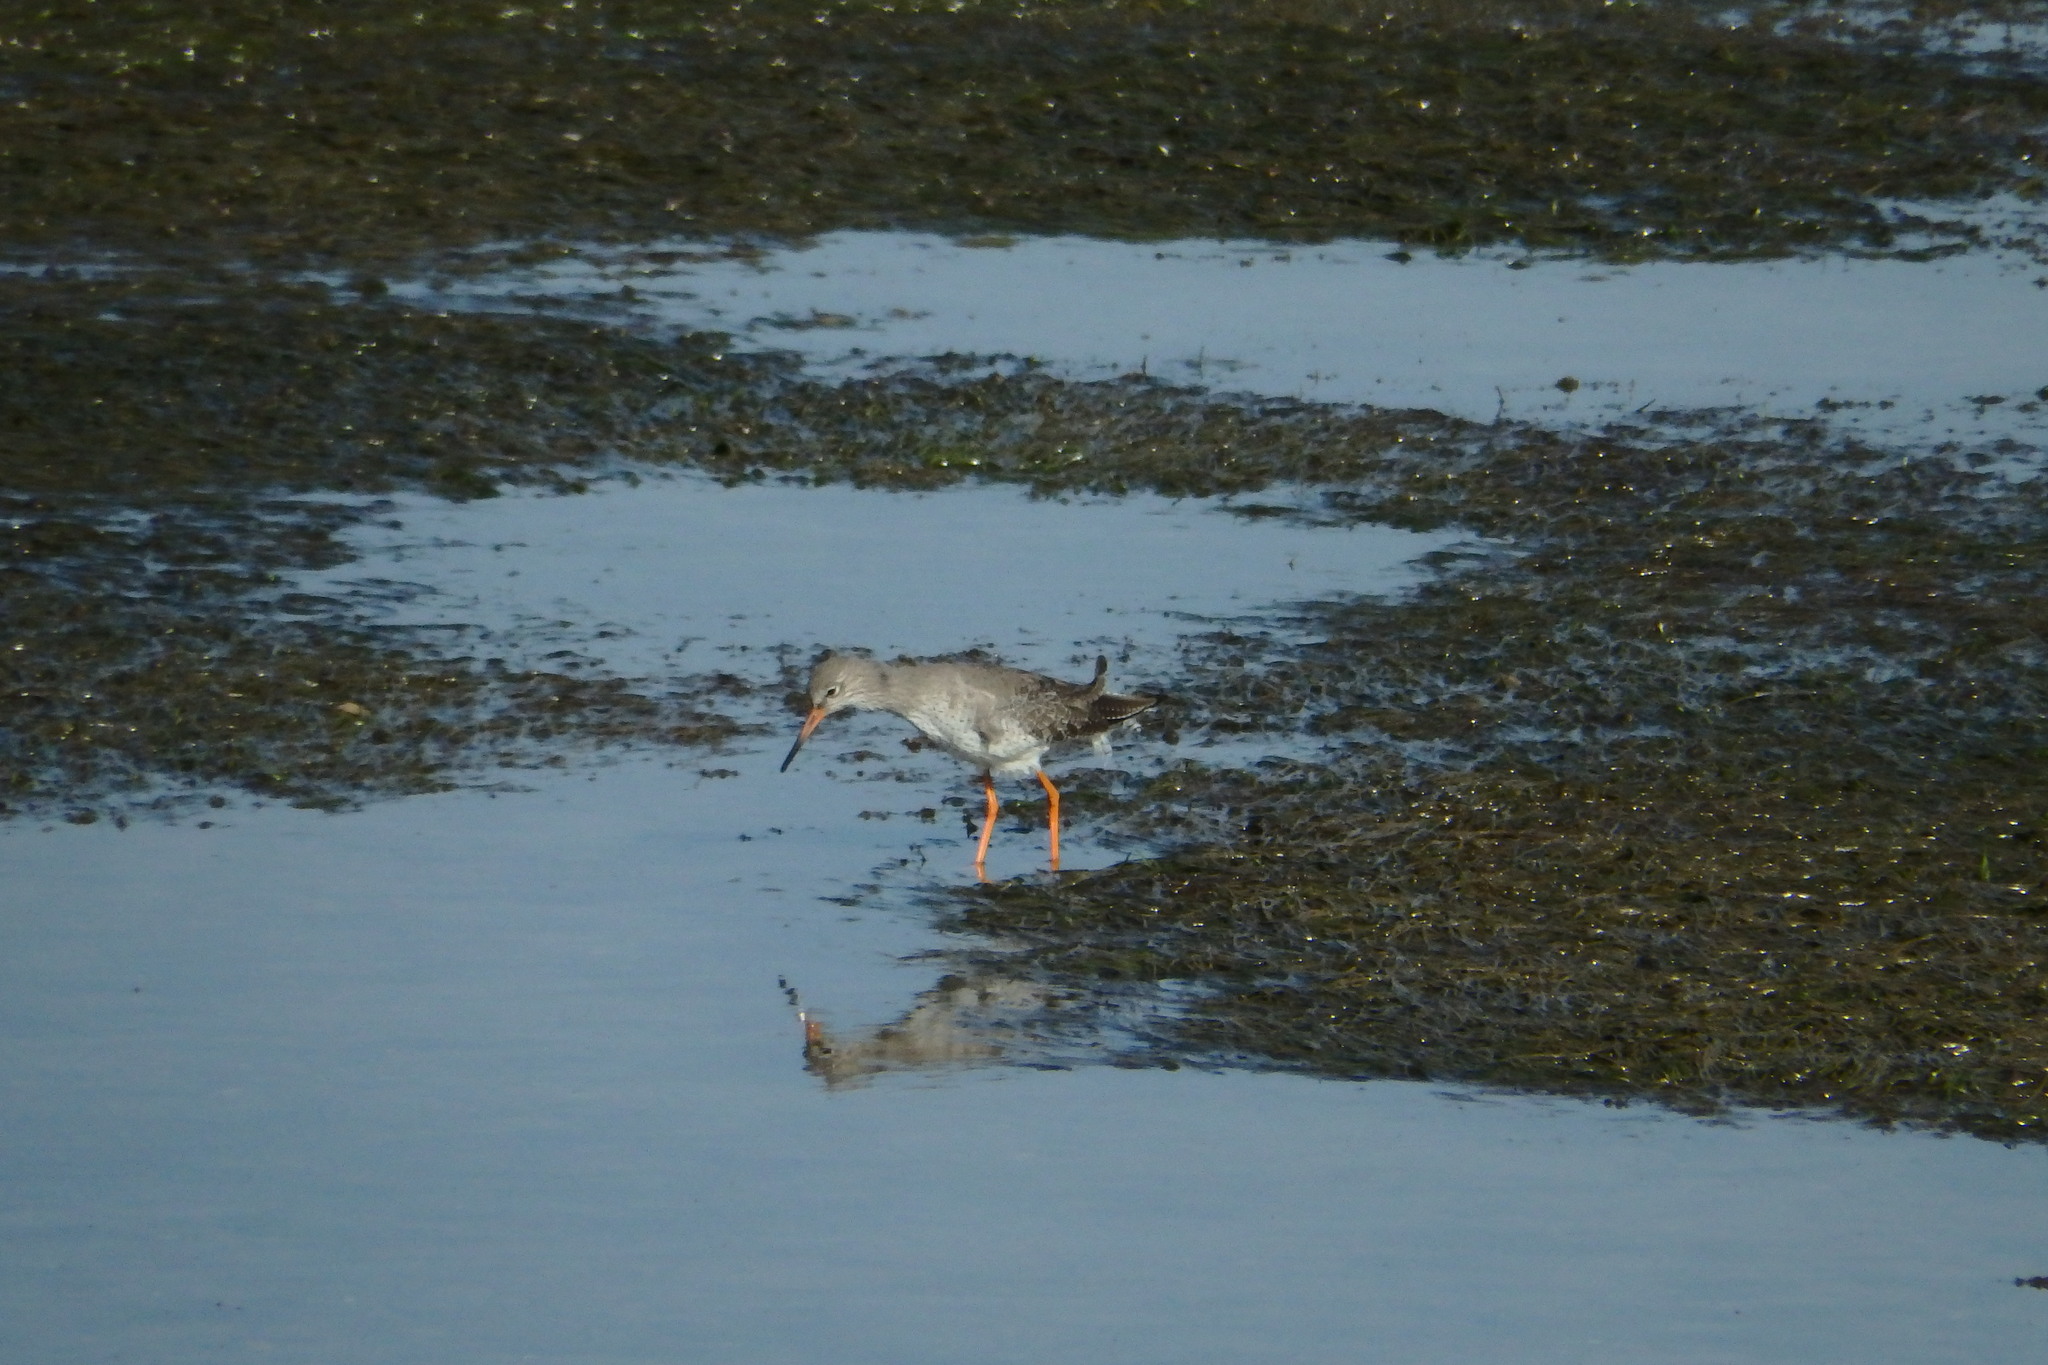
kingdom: Animalia
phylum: Chordata
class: Aves
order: Charadriiformes
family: Scolopacidae
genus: Tringa
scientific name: Tringa totanus
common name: Common redshank
